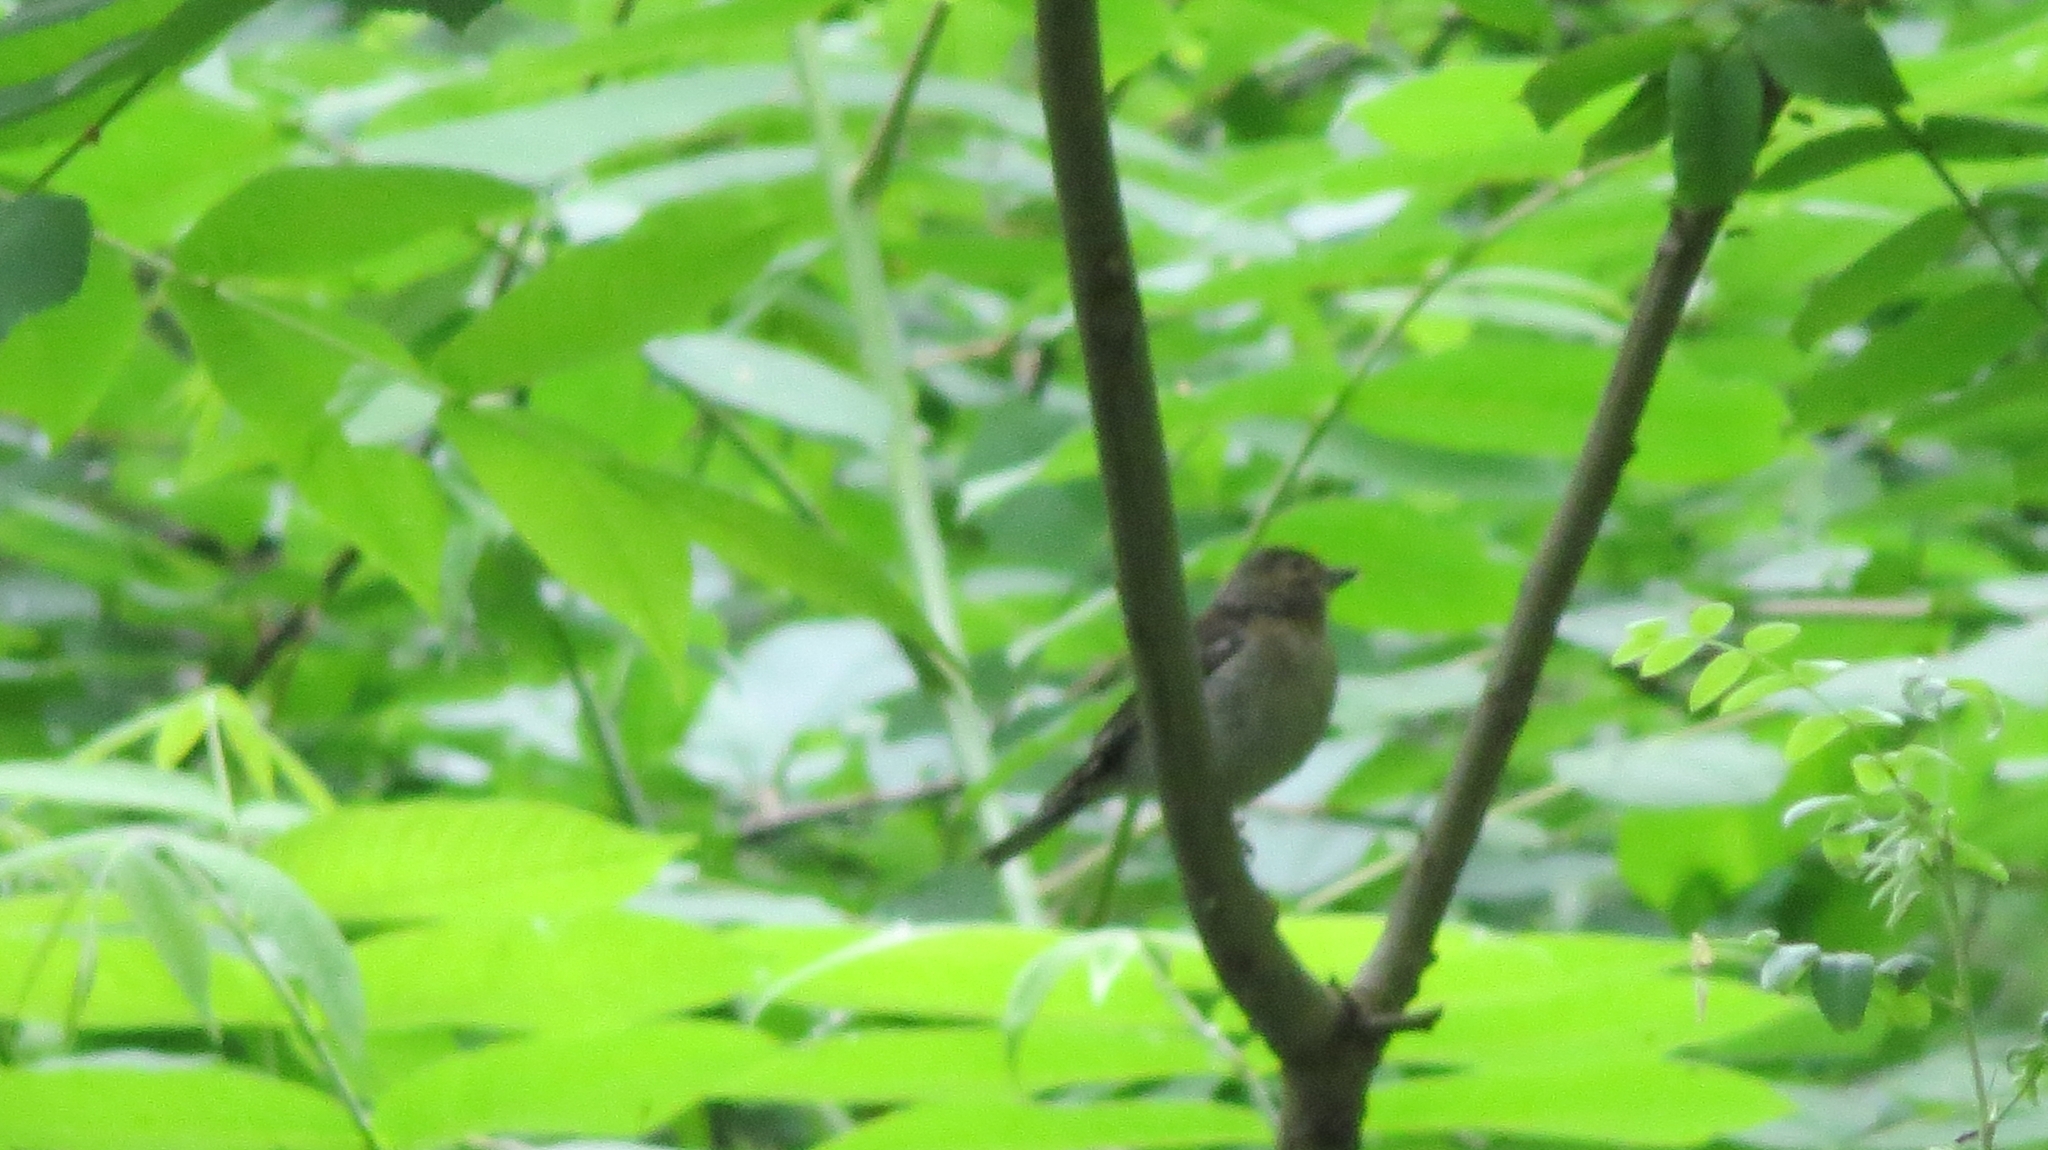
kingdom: Animalia
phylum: Chordata
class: Aves
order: Passeriformes
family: Fringillidae
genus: Fringilla
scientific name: Fringilla coelebs
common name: Common chaffinch
